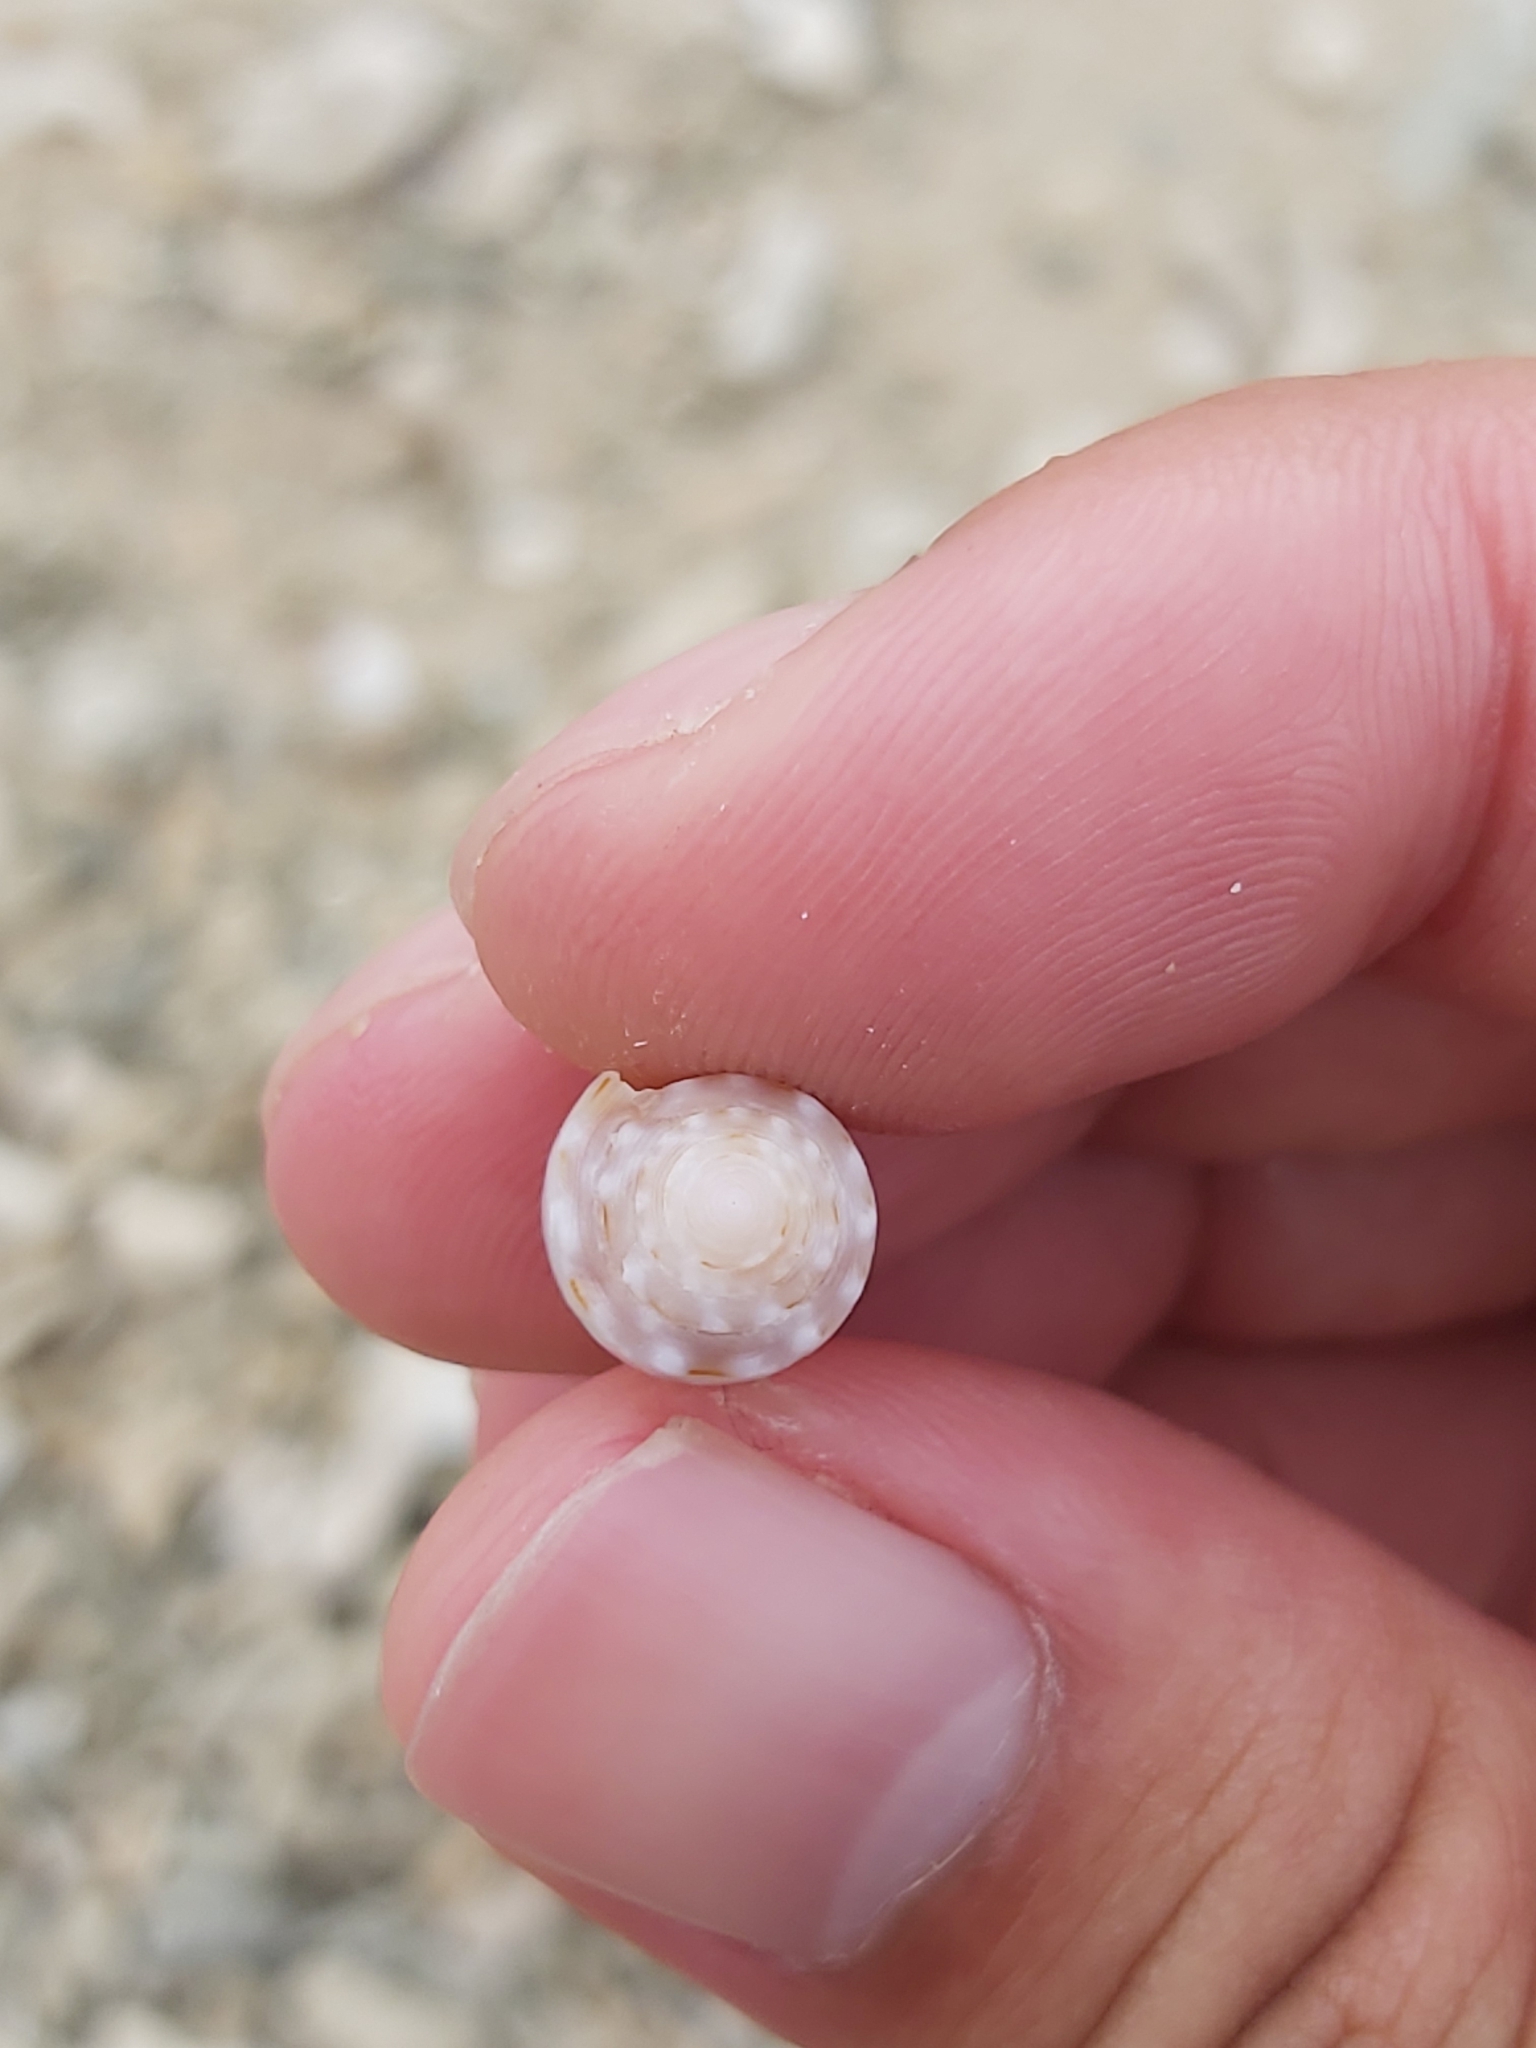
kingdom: Animalia
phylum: Mollusca
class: Gastropoda
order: Neogastropoda
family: Conidae
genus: Conus
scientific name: Conus coronatus
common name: Coronated cone
